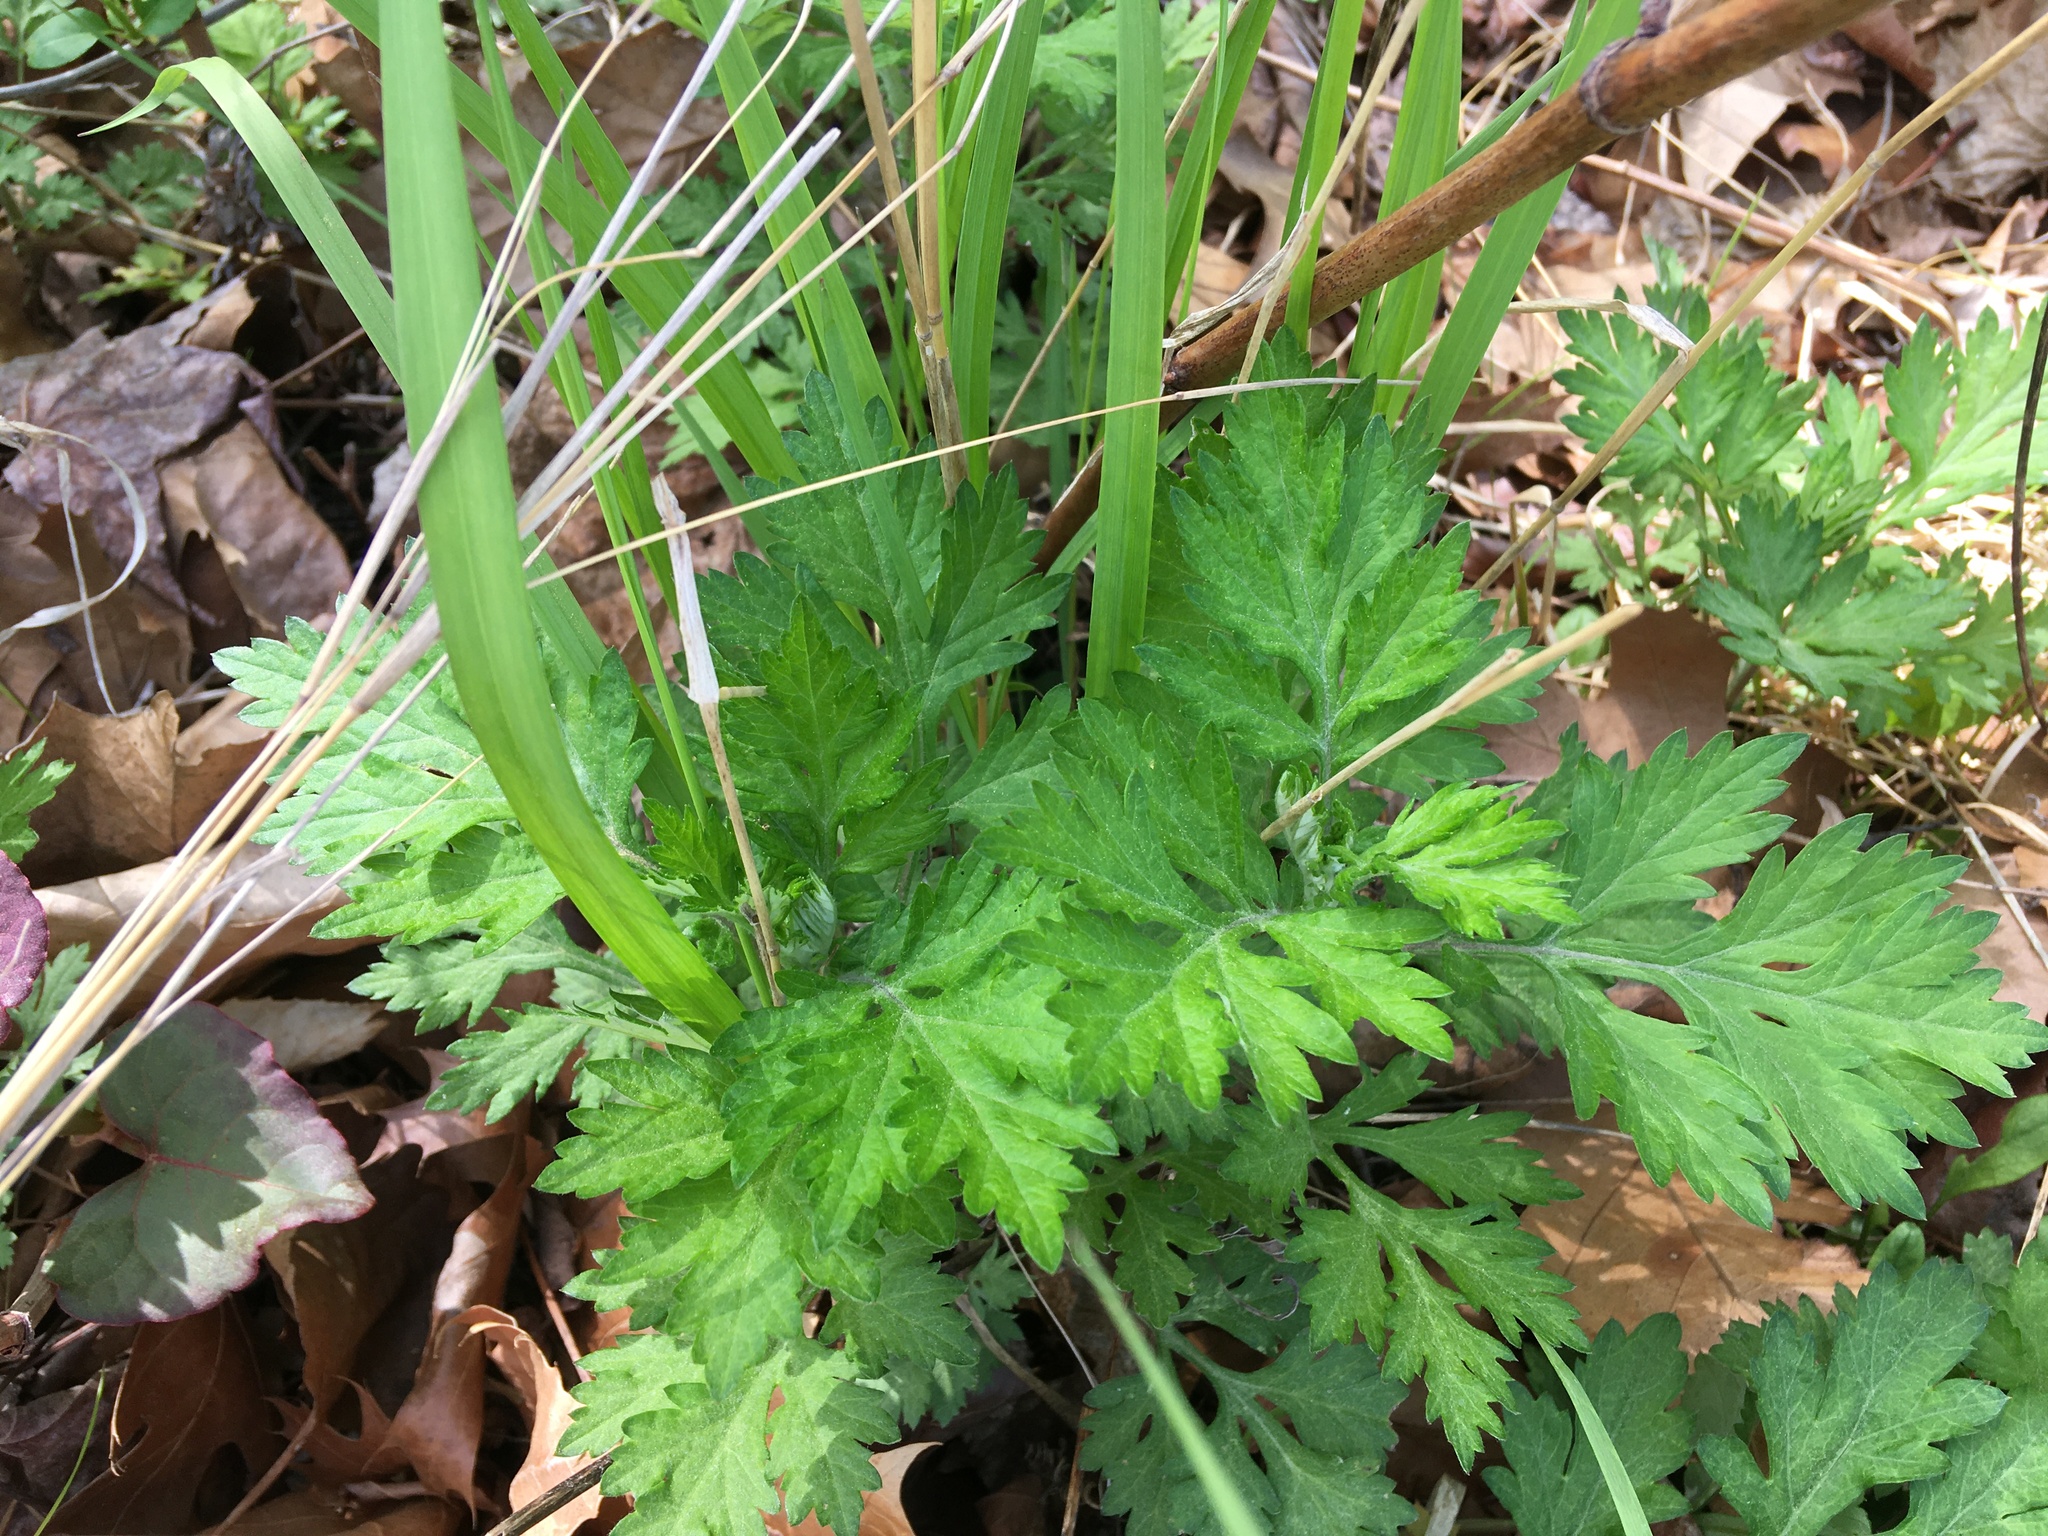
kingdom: Plantae
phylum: Tracheophyta
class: Magnoliopsida
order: Asterales
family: Asteraceae
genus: Artemisia
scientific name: Artemisia vulgaris
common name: Mugwort
